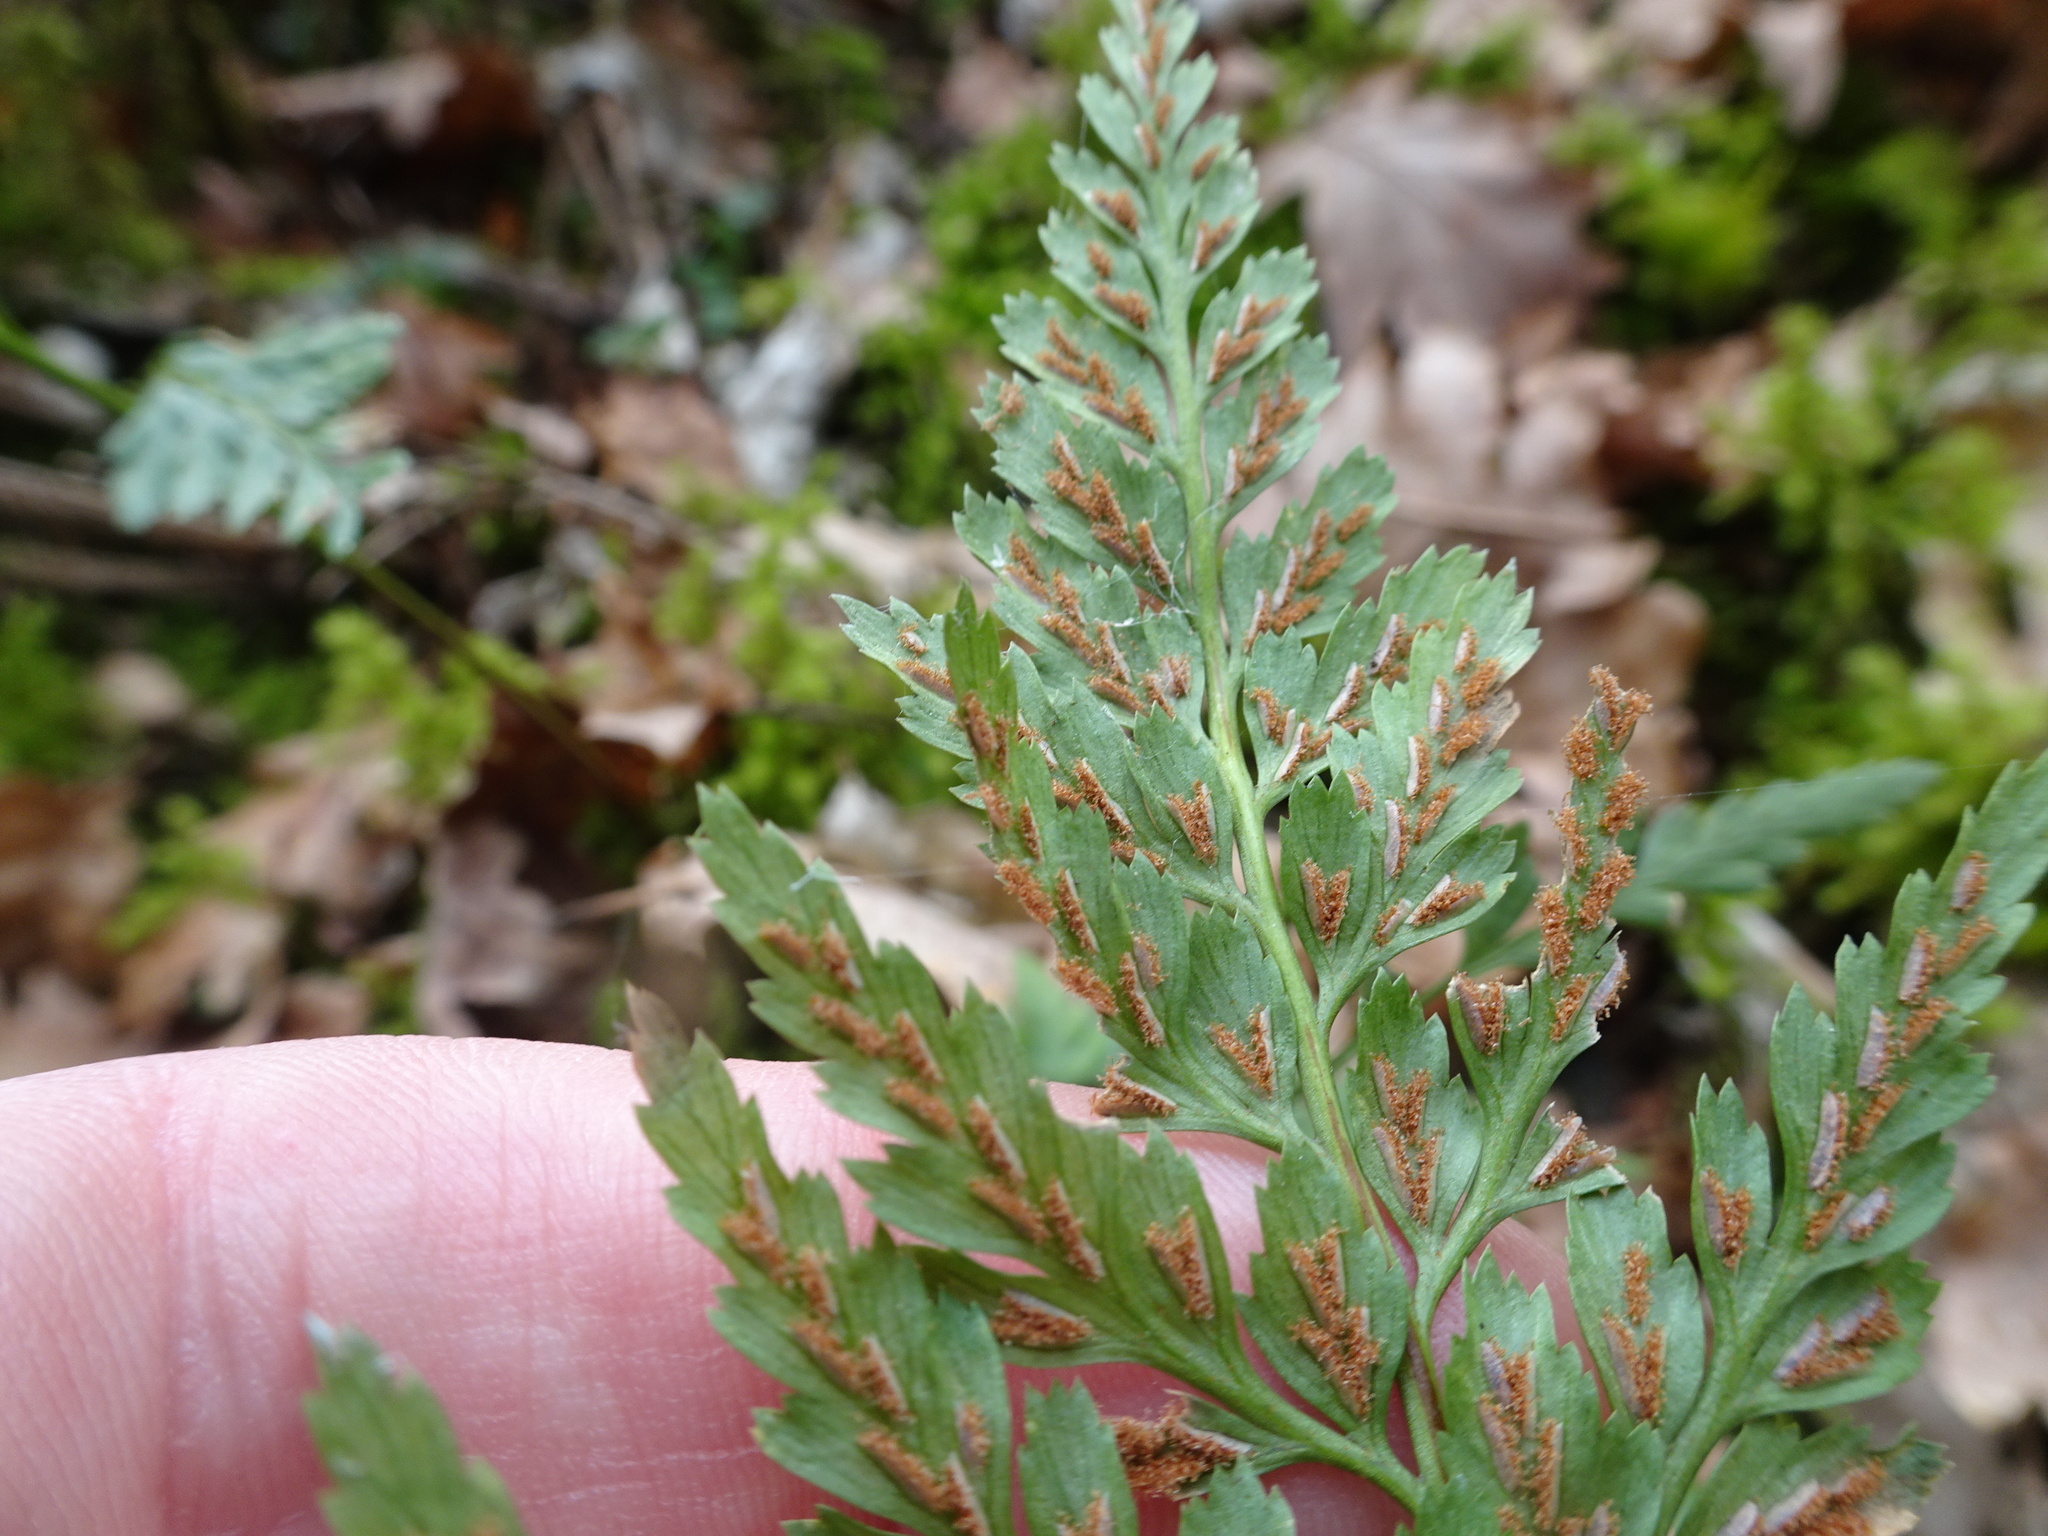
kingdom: Plantae
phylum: Tracheophyta
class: Polypodiopsida
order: Polypodiales
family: Aspleniaceae
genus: Asplenium
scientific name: Asplenium adiantum-nigrum
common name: Black spleenwort
